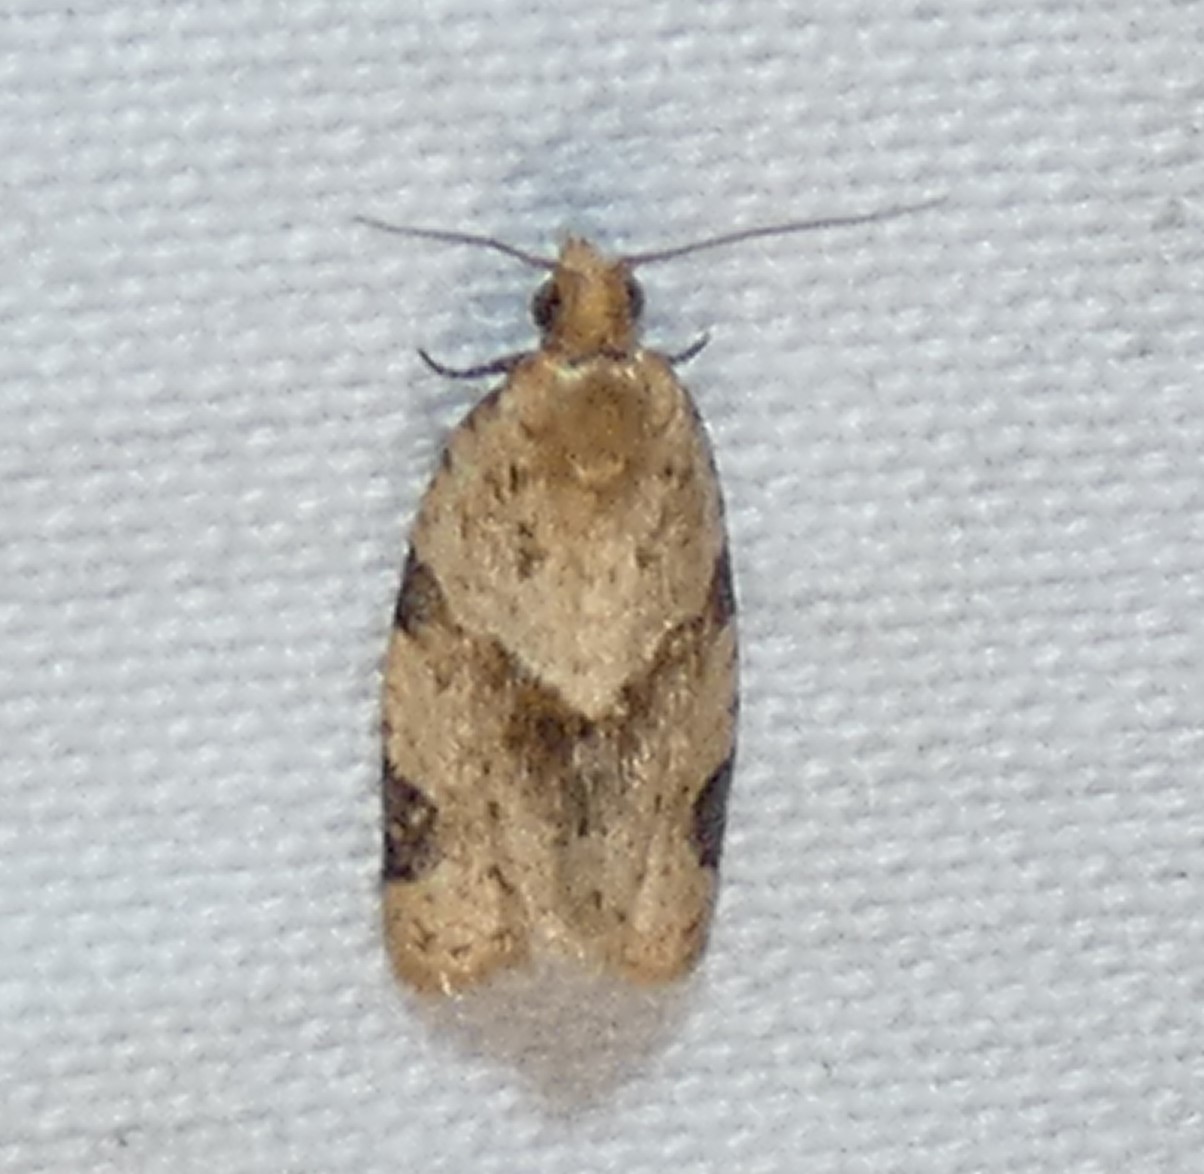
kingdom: Animalia
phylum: Arthropoda
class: Insecta
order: Lepidoptera
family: Tortricidae
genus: Clepsis
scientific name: Clepsis peritana
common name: Garden tortrix
